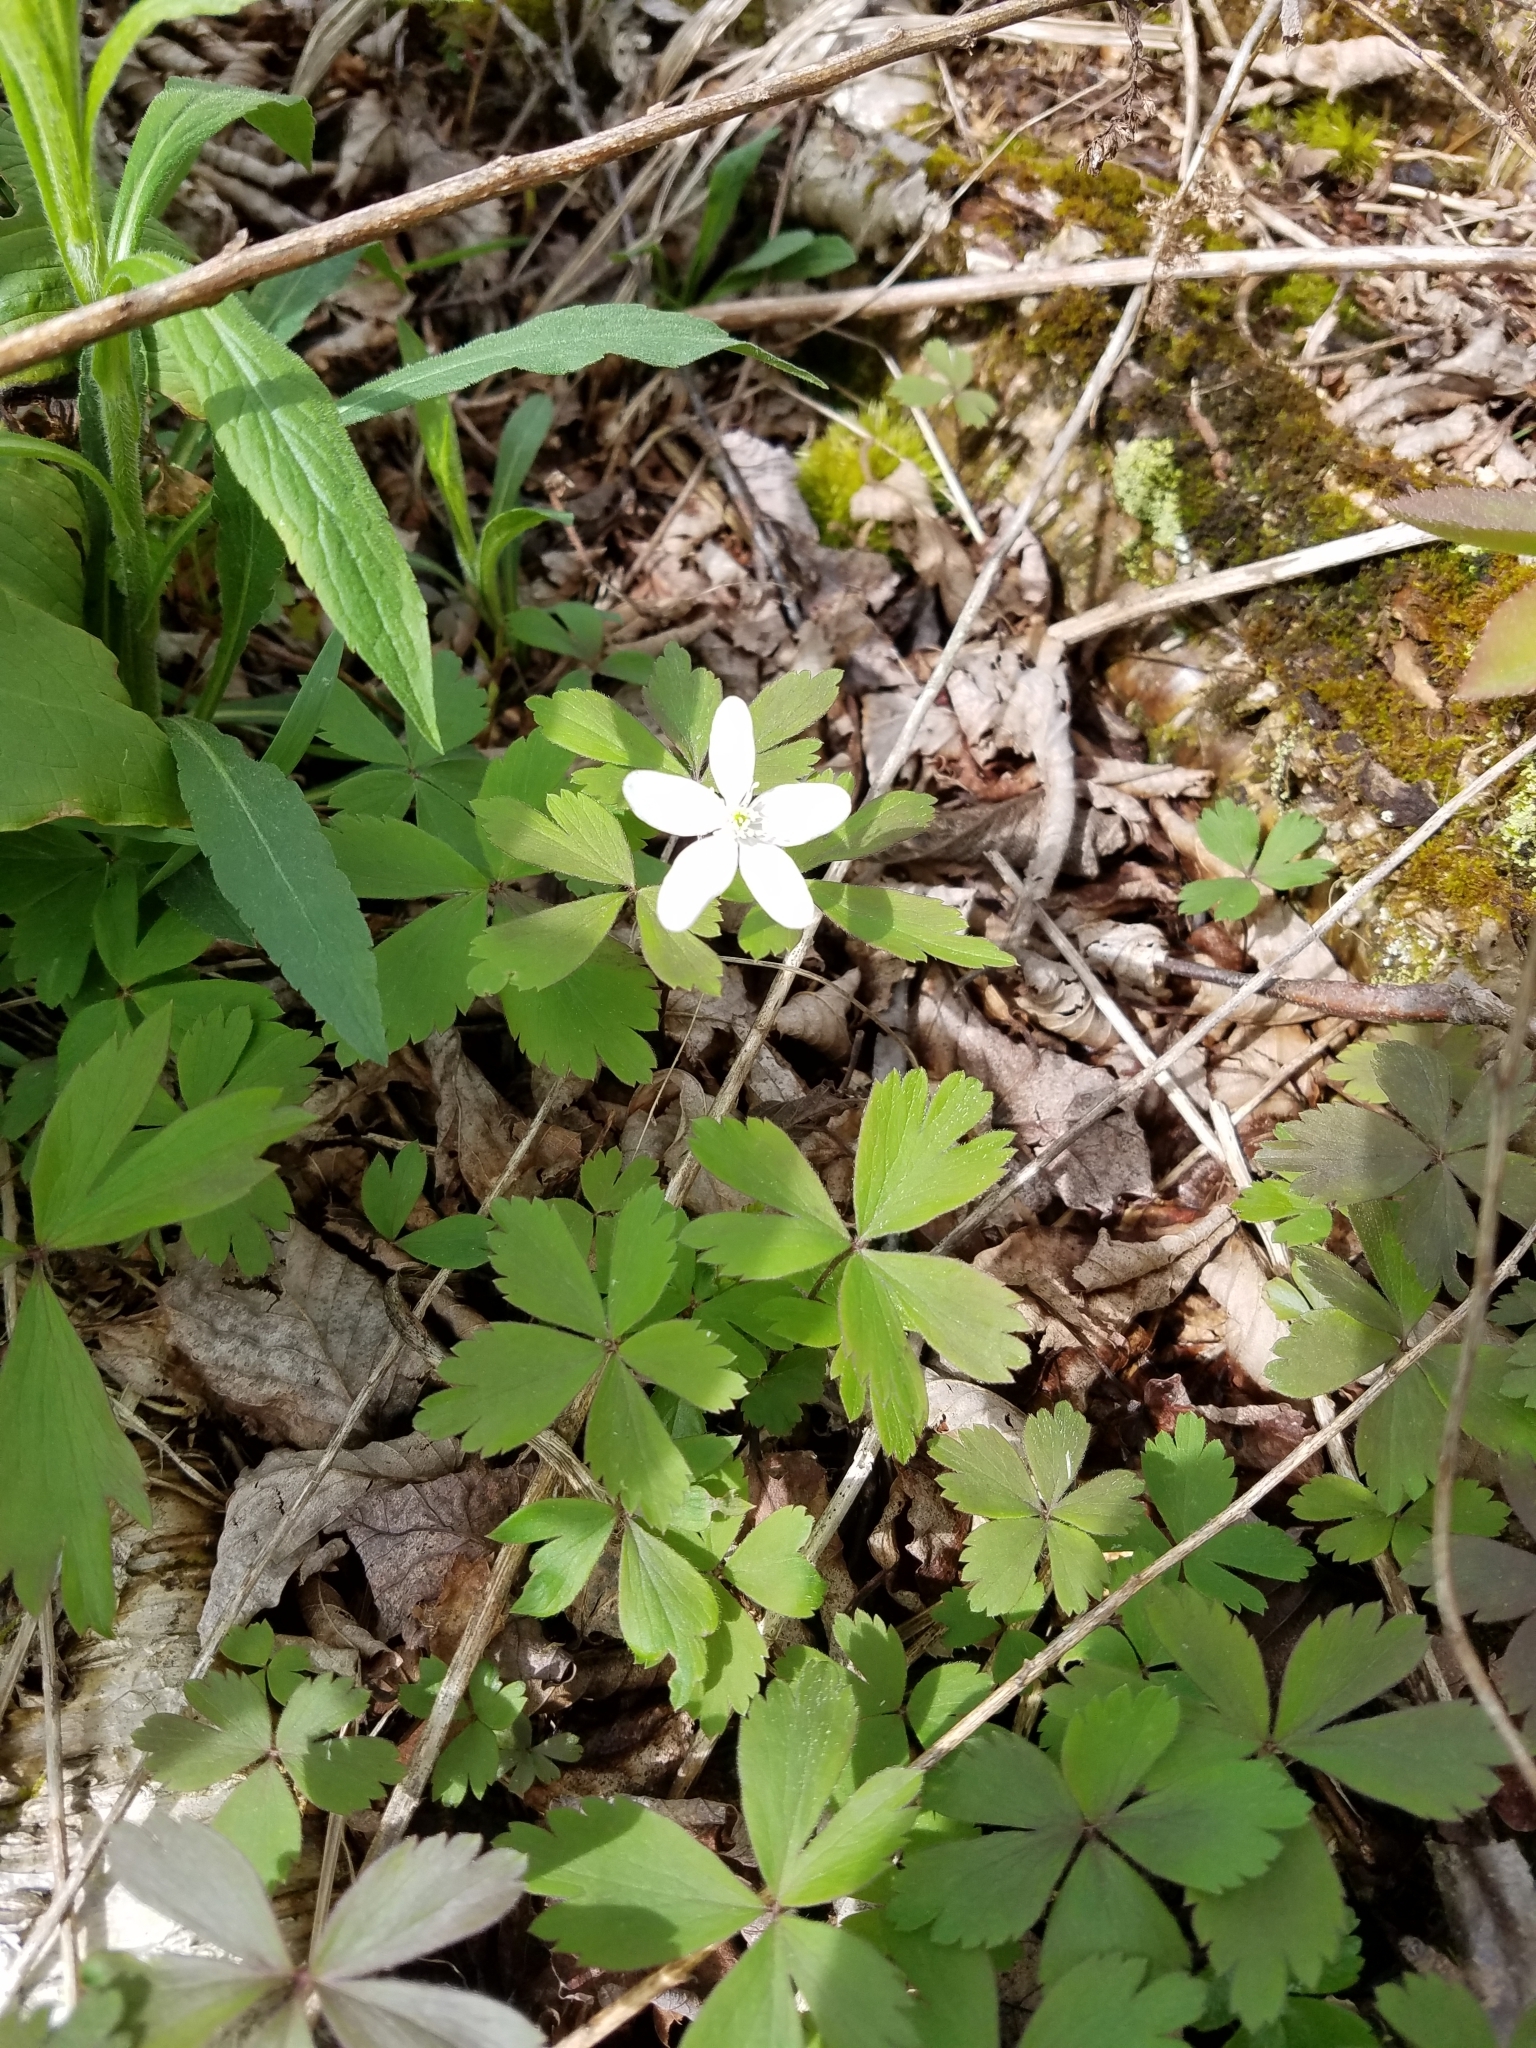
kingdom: Plantae
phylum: Tracheophyta
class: Magnoliopsida
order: Ranunculales
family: Ranunculaceae
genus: Anemone
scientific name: Anemone quinquefolia
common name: Wood anemone
